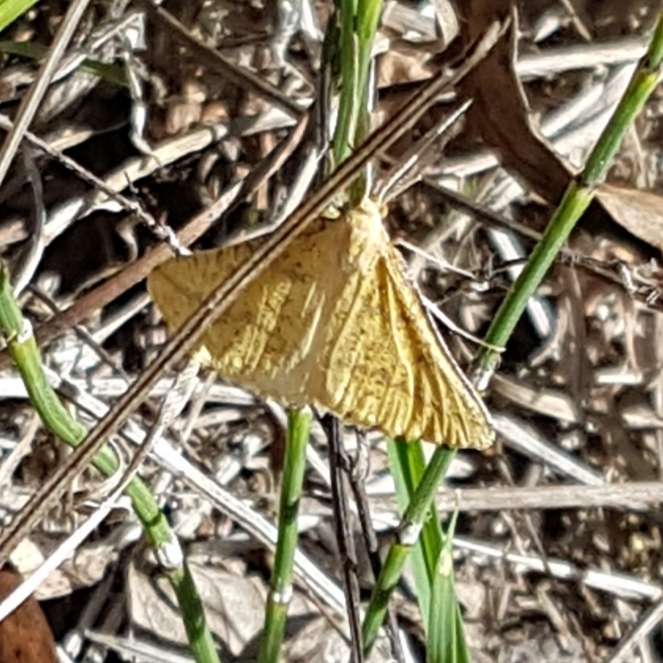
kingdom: Animalia
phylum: Arthropoda
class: Insecta
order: Lepidoptera
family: Geometridae
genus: Aspitates
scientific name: Aspitates ochrearia
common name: Yellow belle
